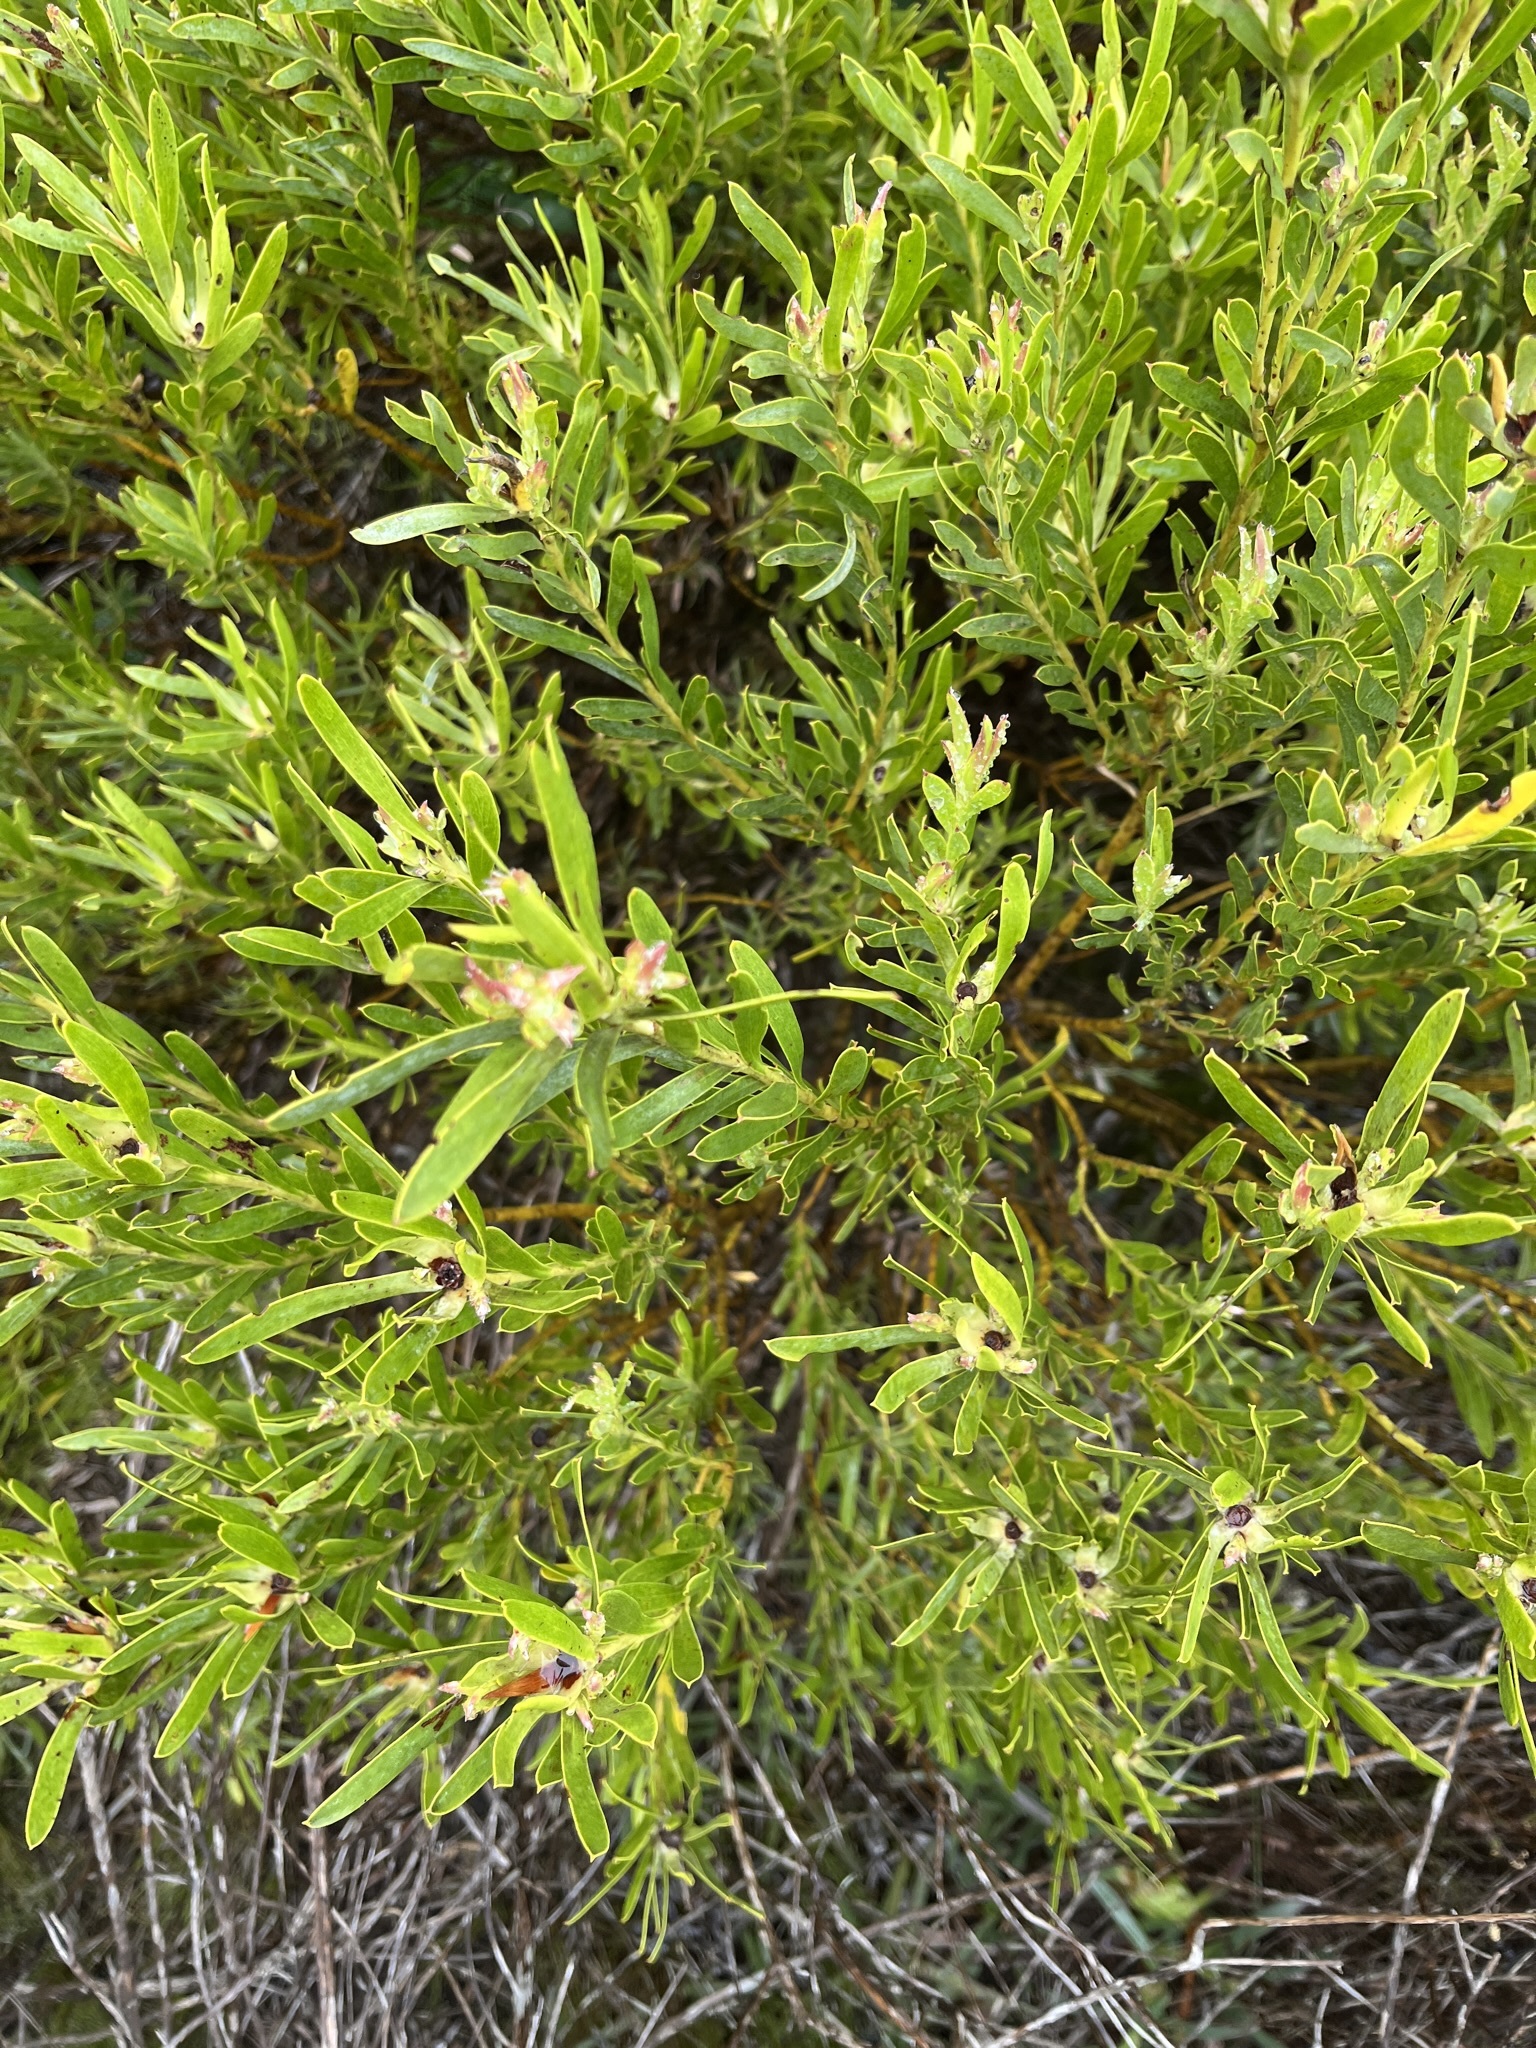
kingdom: Plantae
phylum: Tracheophyta
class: Magnoliopsida
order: Proteales
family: Proteaceae
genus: Leucadendron
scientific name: Leucadendron meridianum
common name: Limestone conebush
